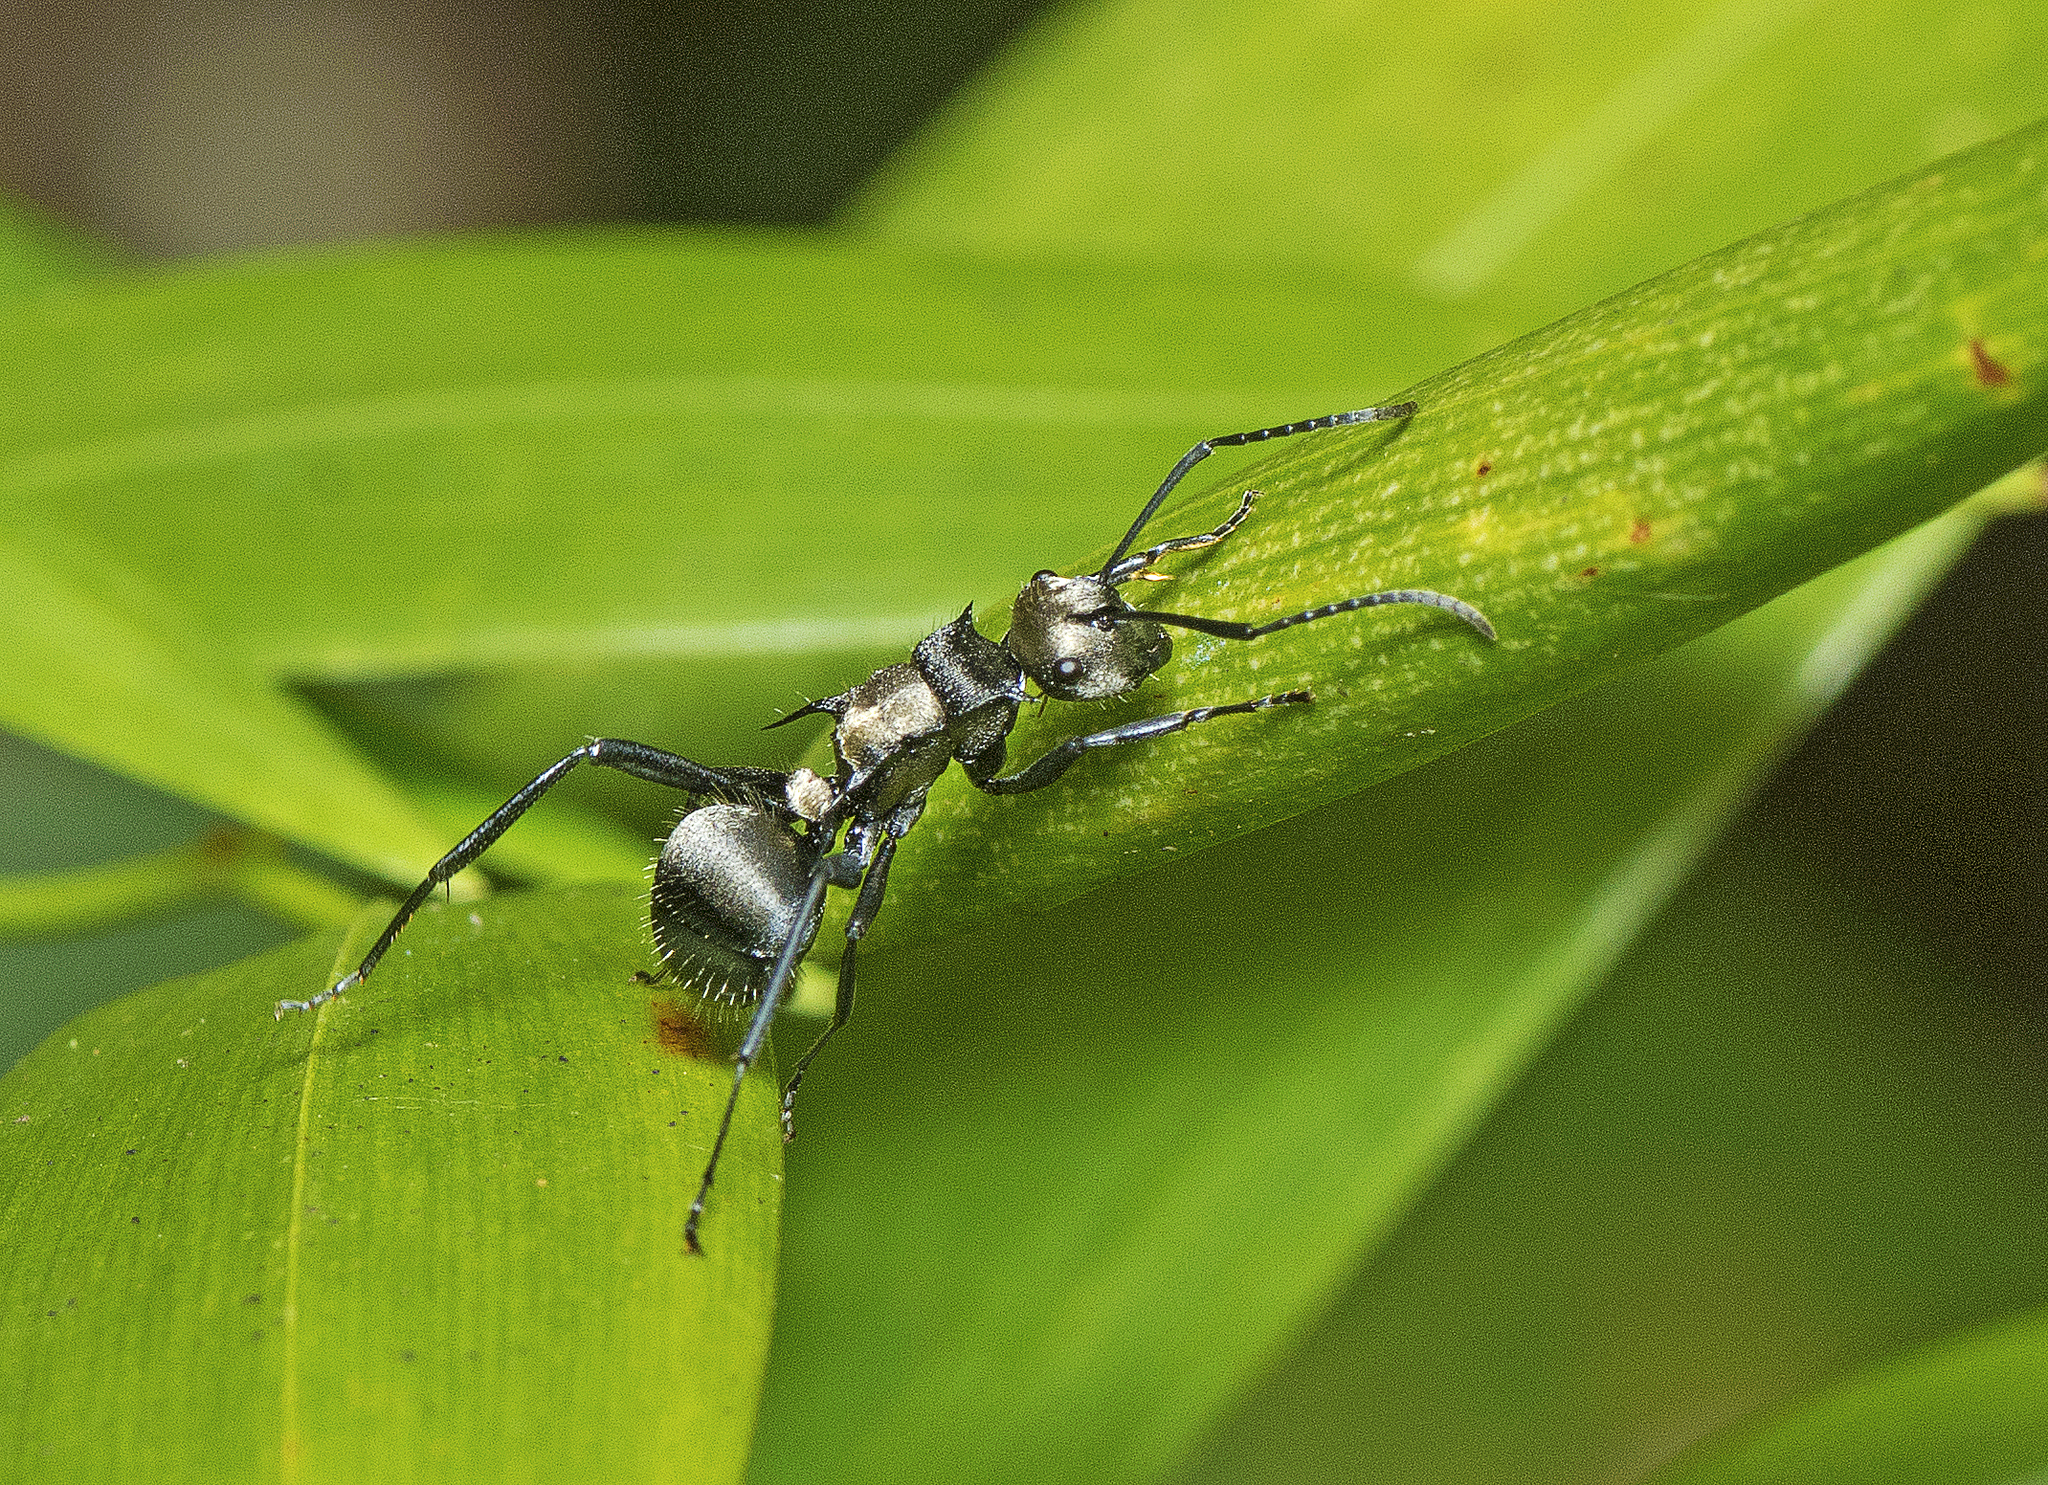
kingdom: Animalia
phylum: Arthropoda
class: Insecta
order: Hymenoptera
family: Formicidae
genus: Polyrhachis
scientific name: Polyrhachis daemeli
